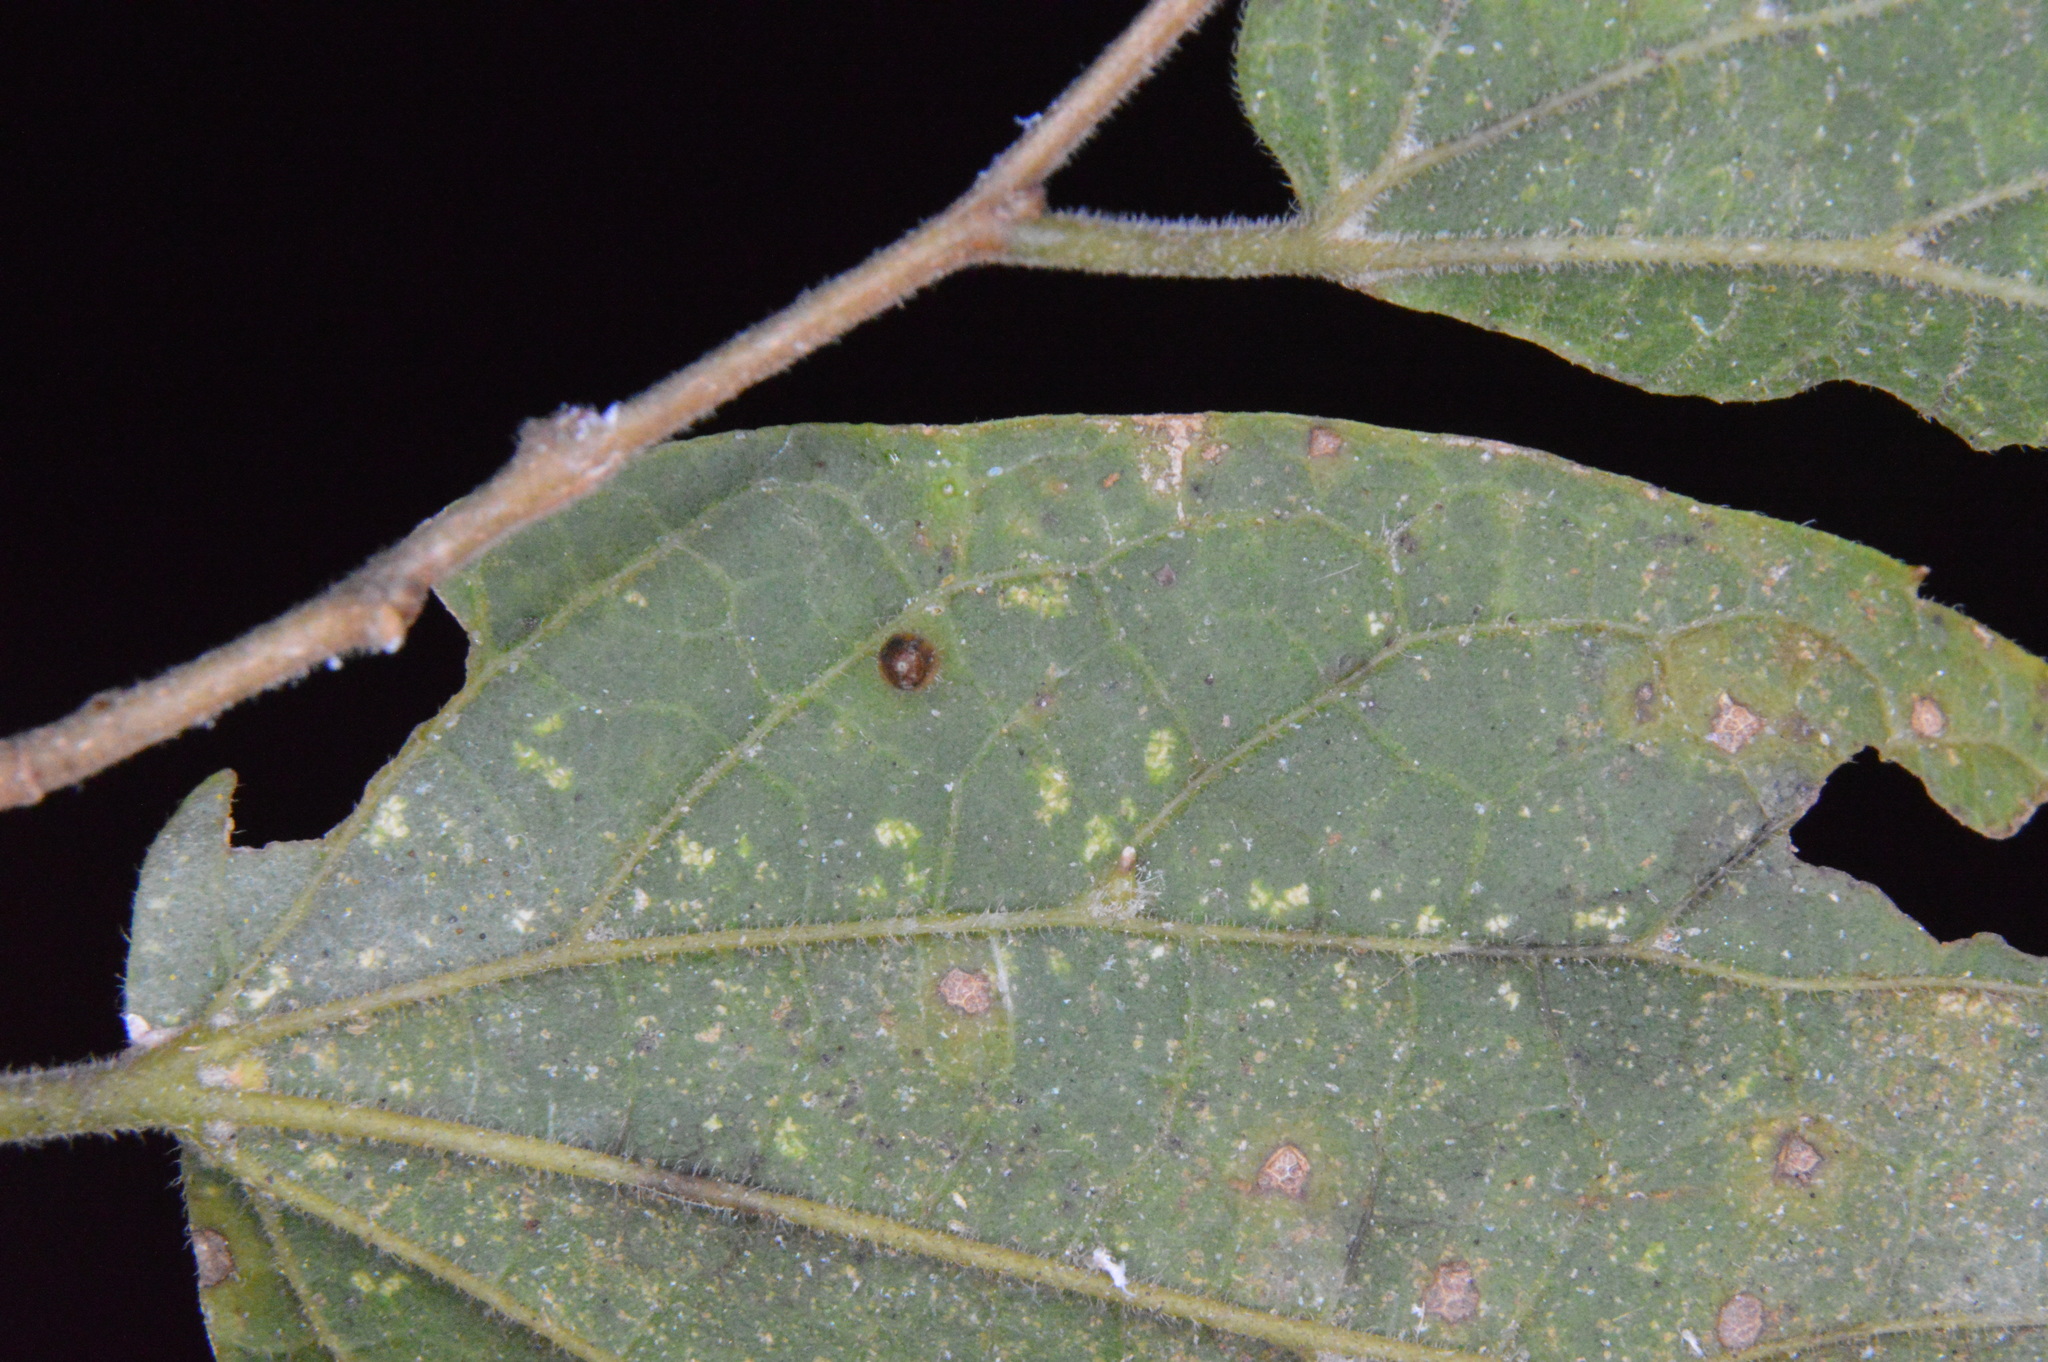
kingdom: Animalia
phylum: Arthropoda
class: Insecta
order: Diptera
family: Cecidomyiidae
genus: Celticecis
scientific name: Celticecis cupiformis
